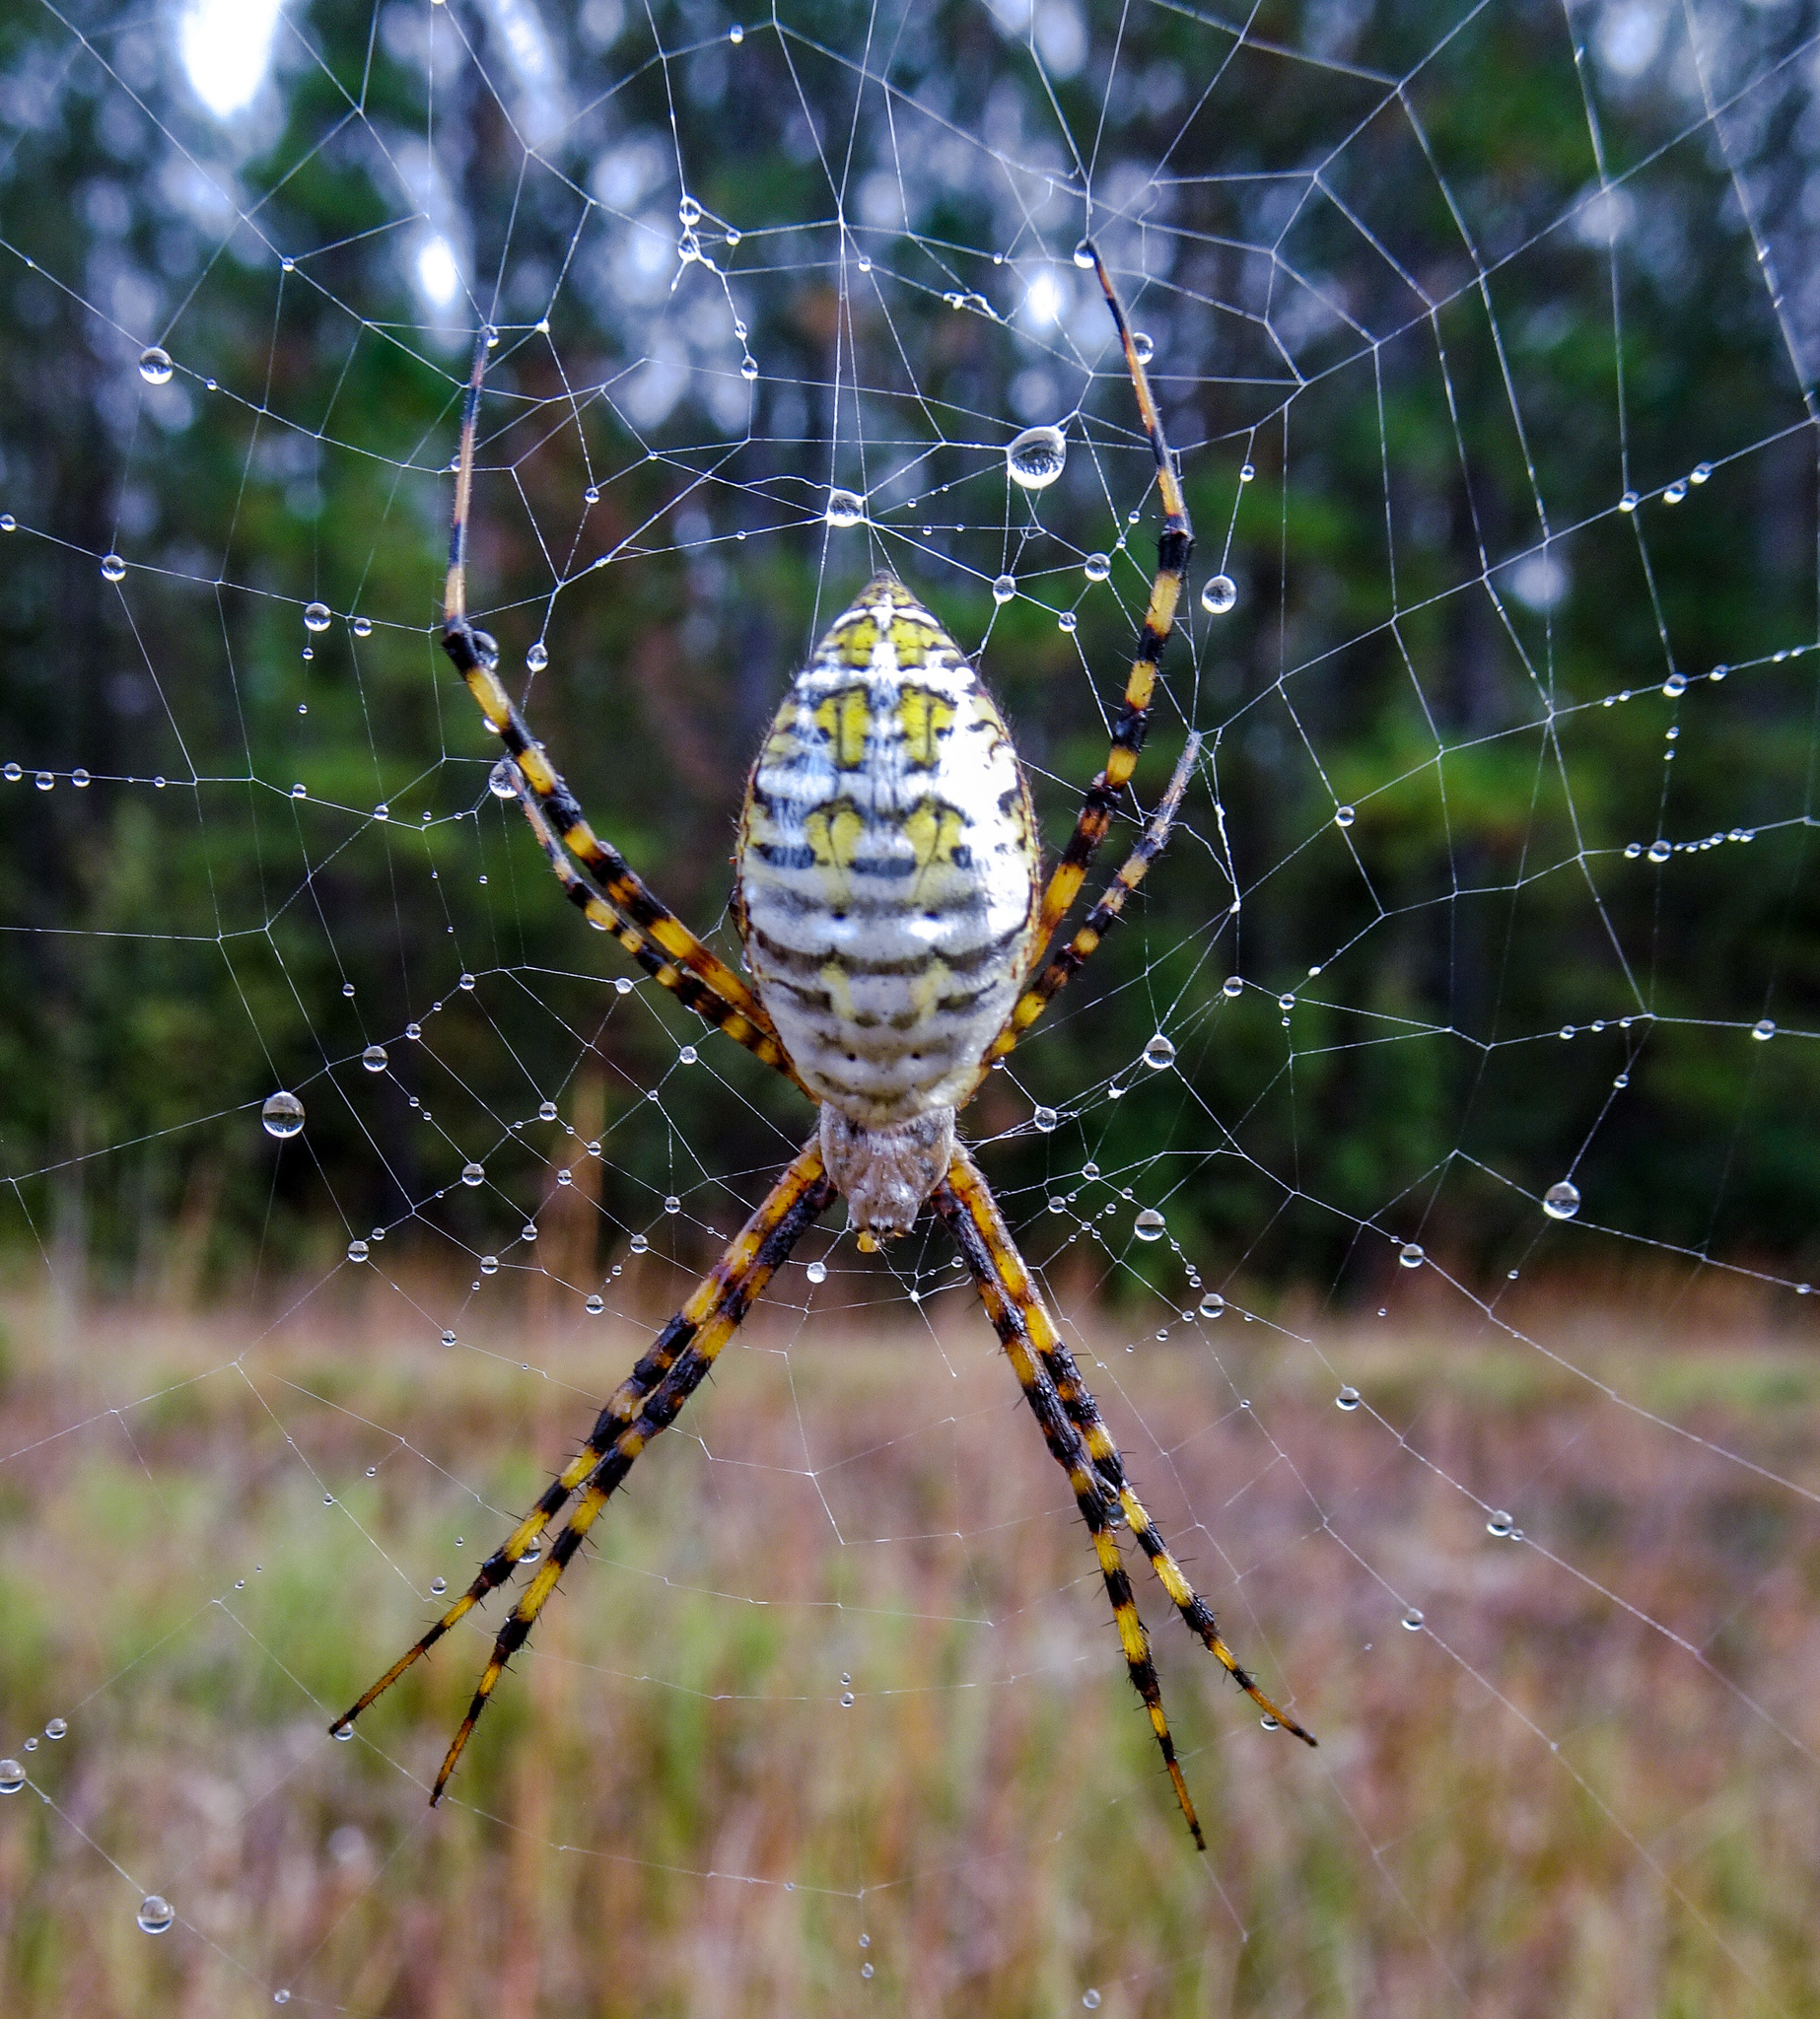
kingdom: Animalia
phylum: Arthropoda
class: Arachnida
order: Araneae
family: Araneidae
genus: Argiope
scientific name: Argiope trifasciata
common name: Banded garden spider
